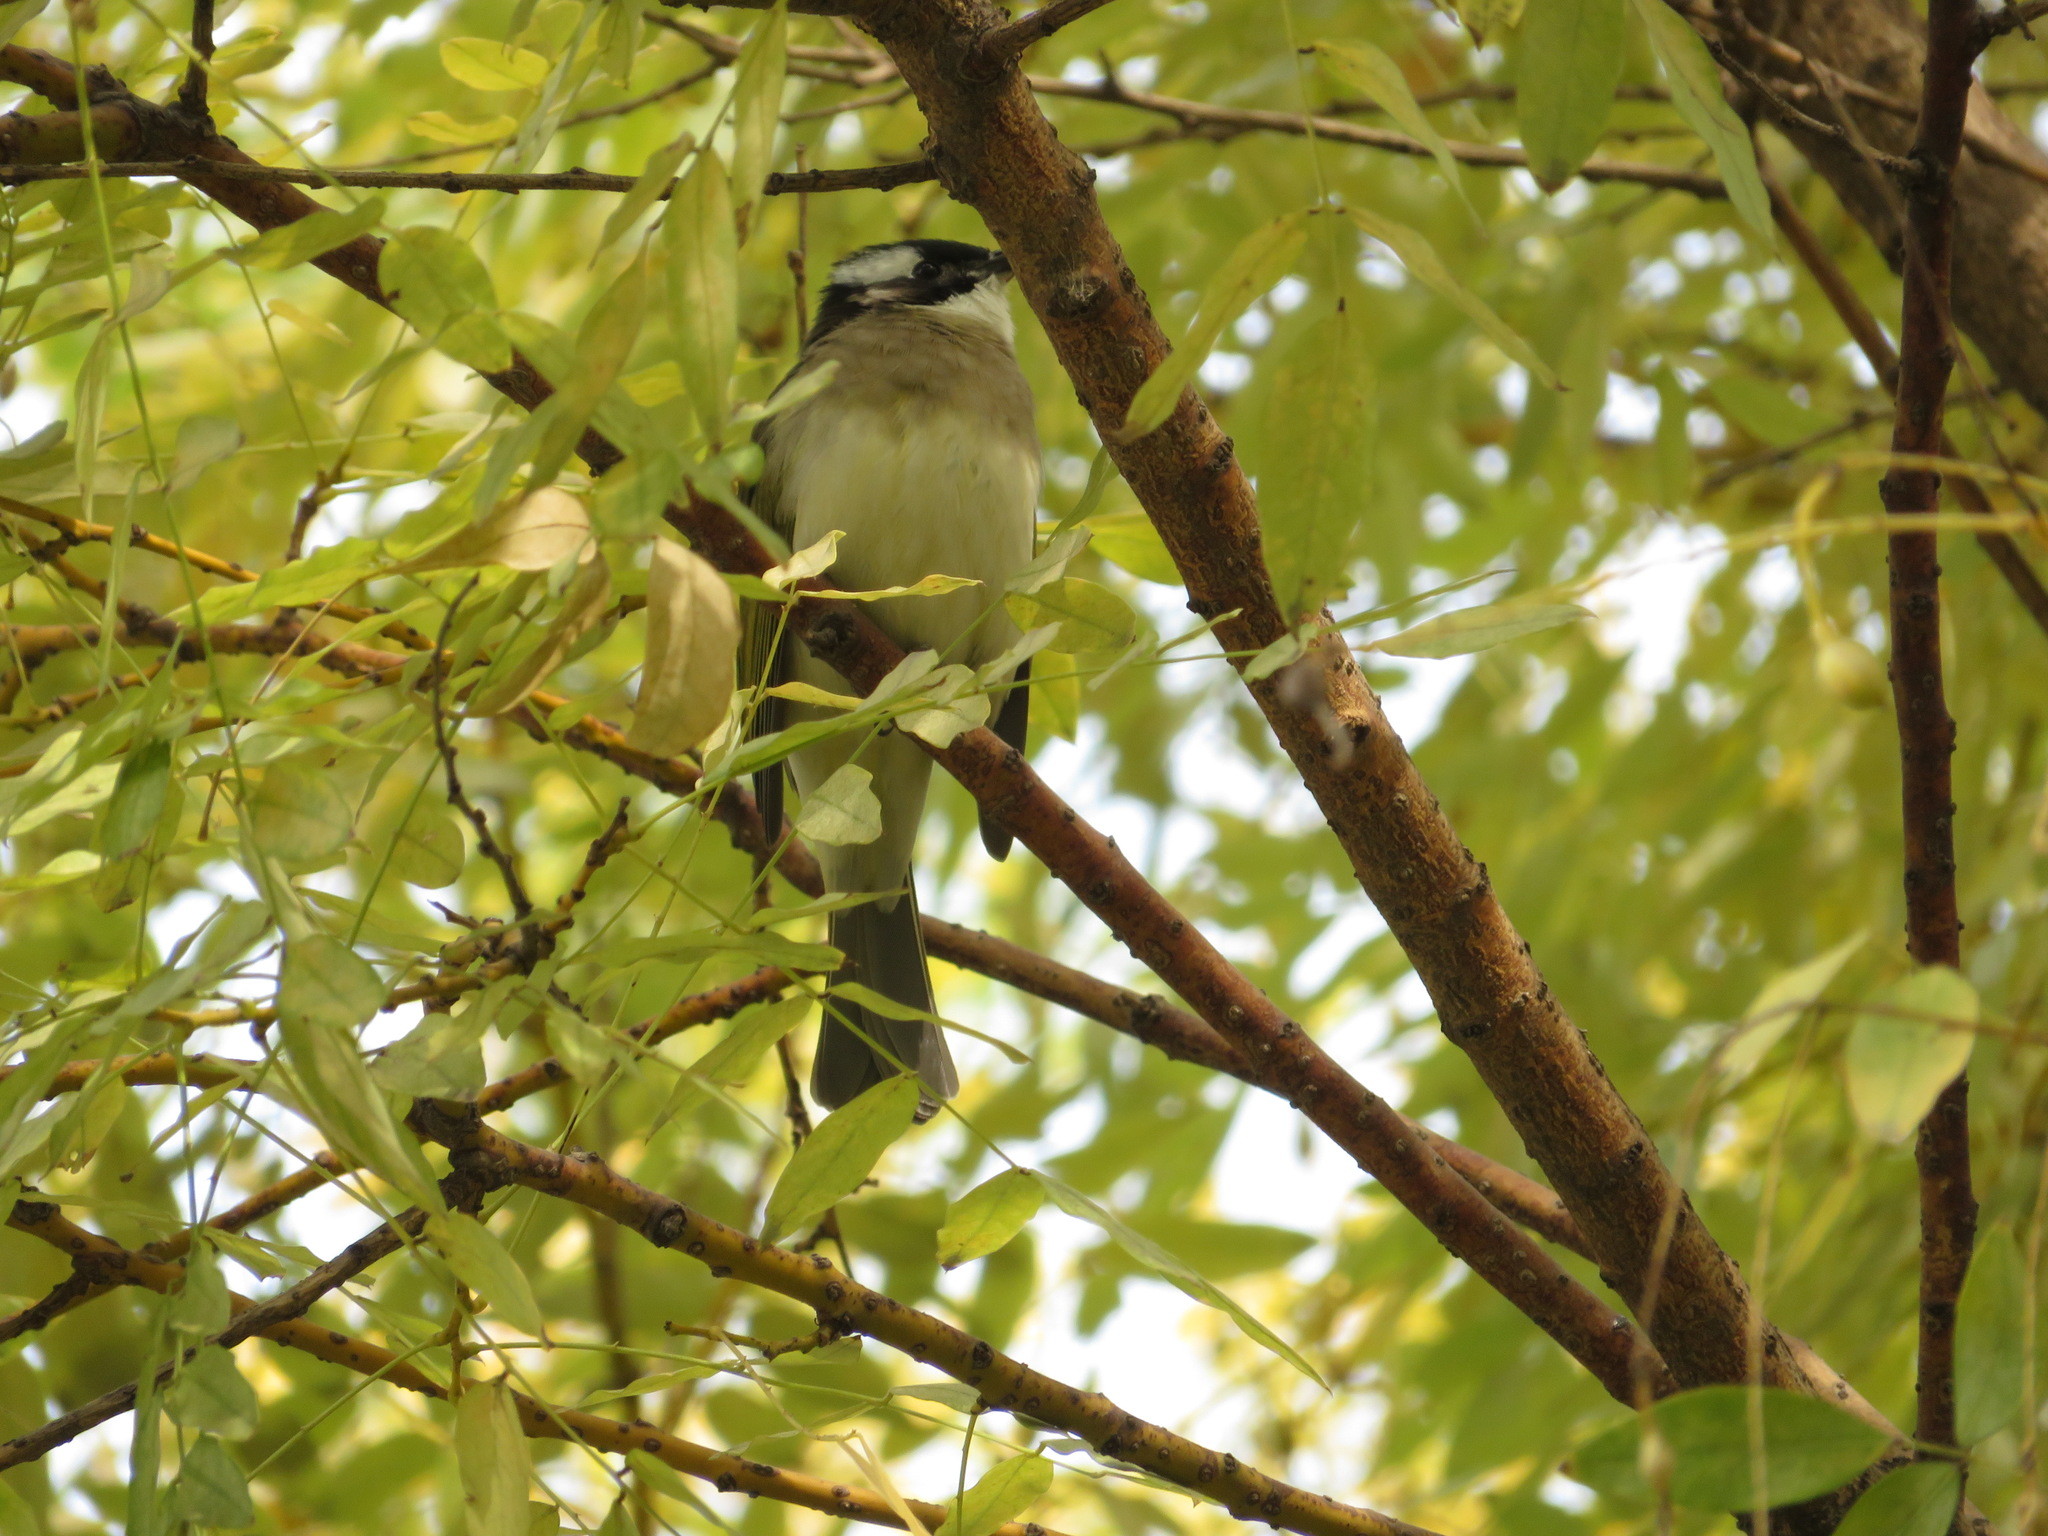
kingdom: Animalia
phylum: Chordata
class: Aves
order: Passeriformes
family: Pycnonotidae
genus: Pycnonotus
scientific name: Pycnonotus sinensis
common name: Light-vented bulbul
